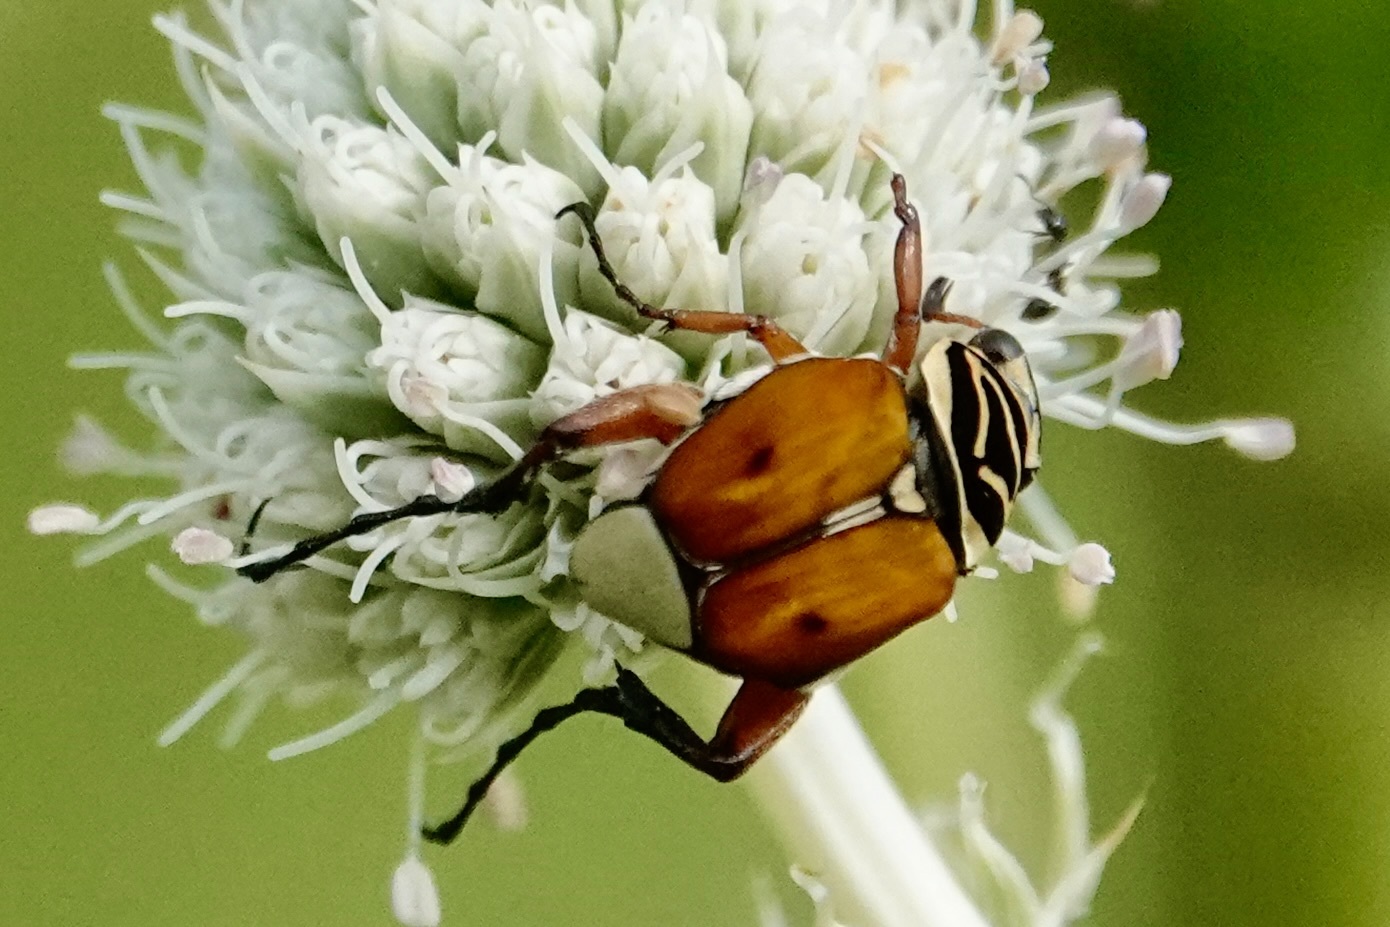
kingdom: Animalia
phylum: Arthropoda
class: Insecta
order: Coleoptera
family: Scarabaeidae
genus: Trigonopeltastes
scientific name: Trigonopeltastes delta
